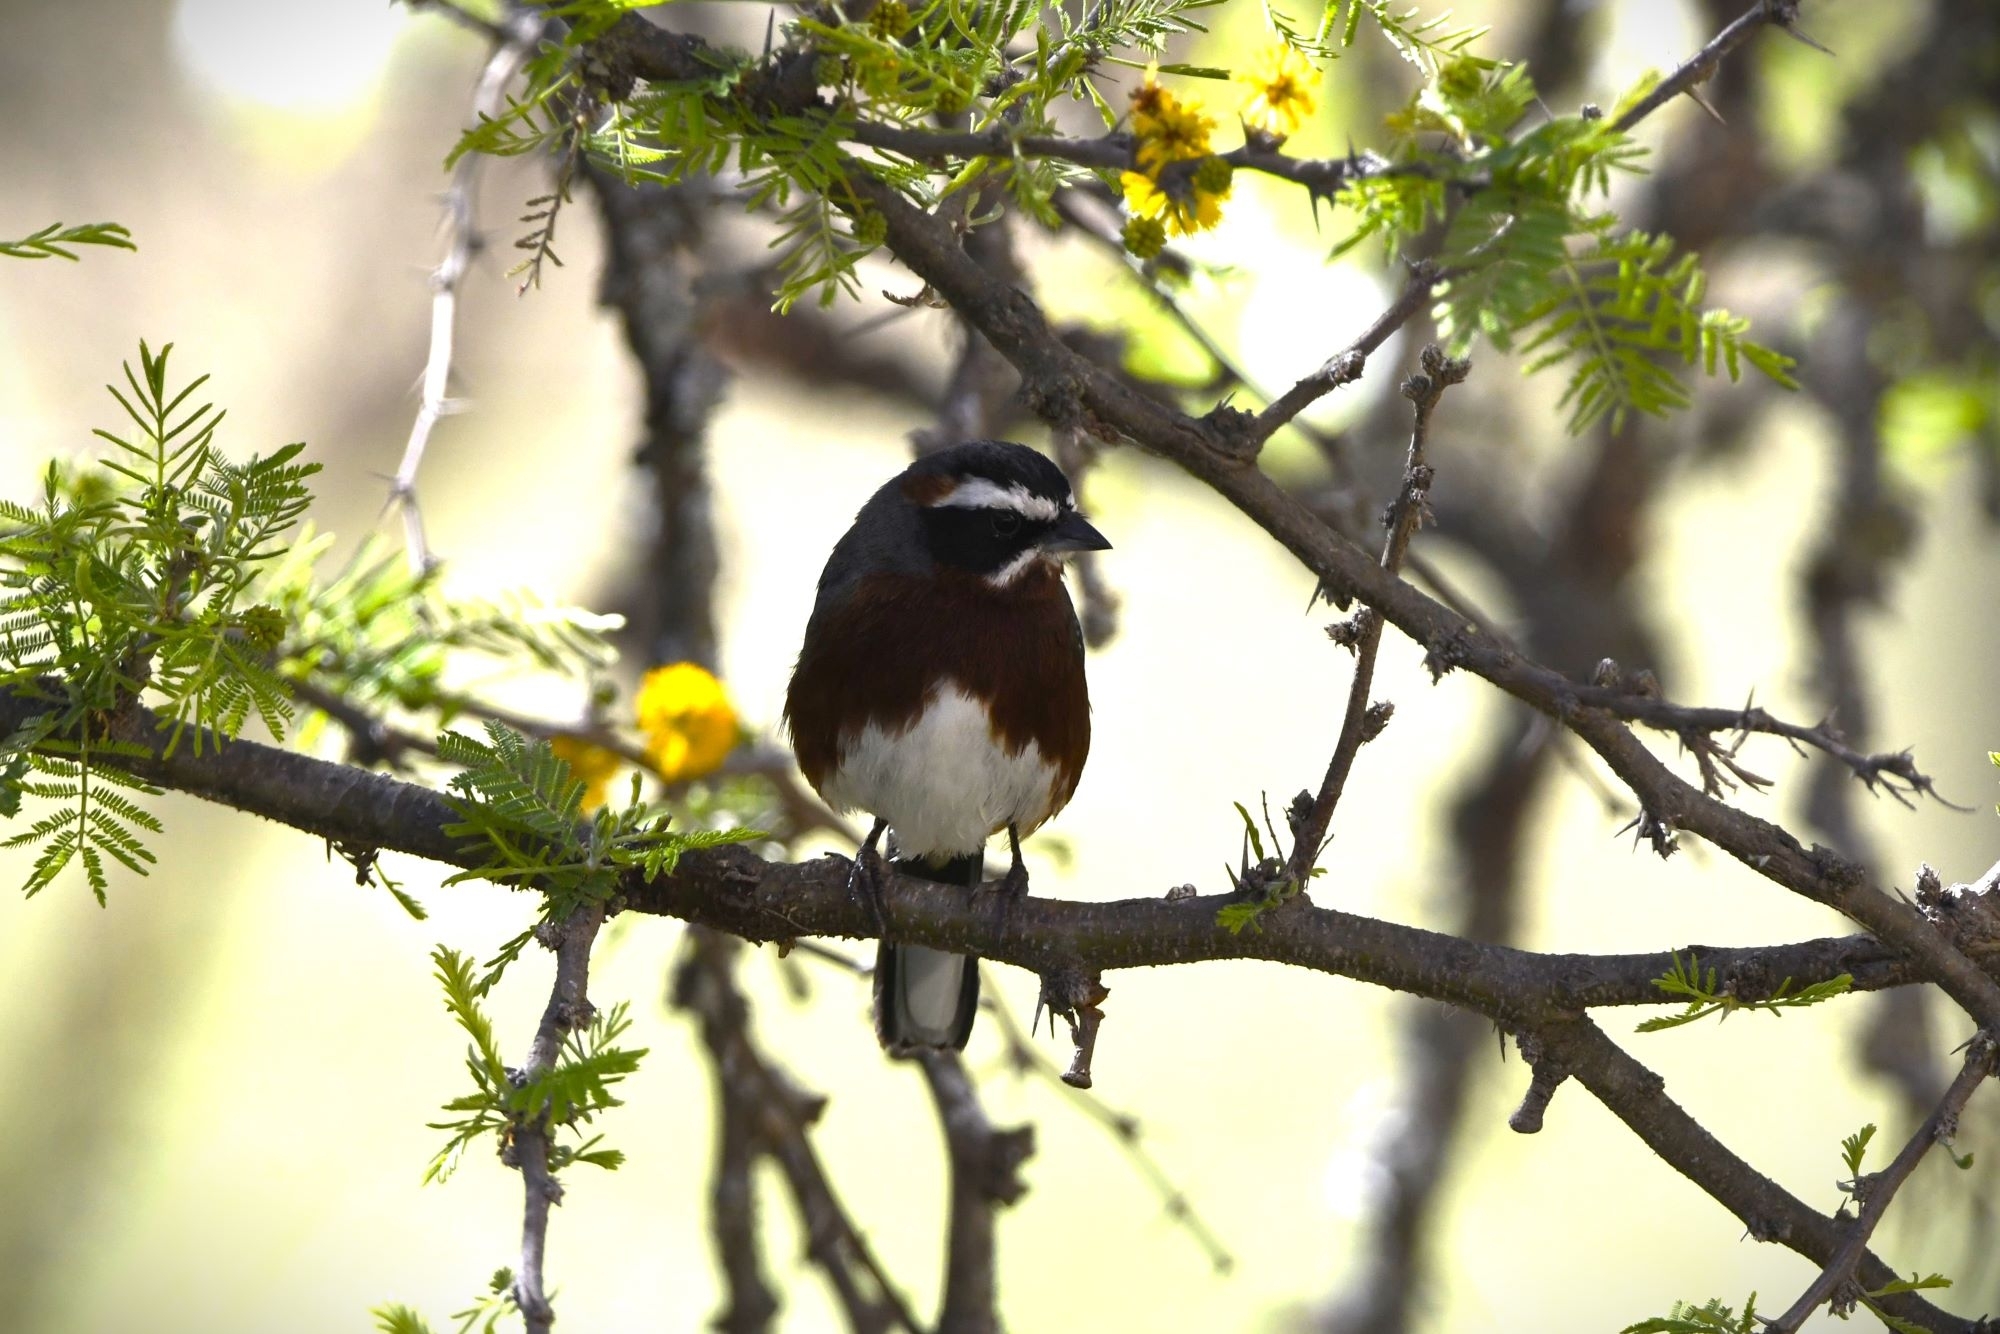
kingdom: Animalia
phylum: Chordata
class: Aves
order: Passeriformes
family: Thraupidae
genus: Poospiza
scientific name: Poospiza whitii
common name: Black-and-chestnut warbling finch
